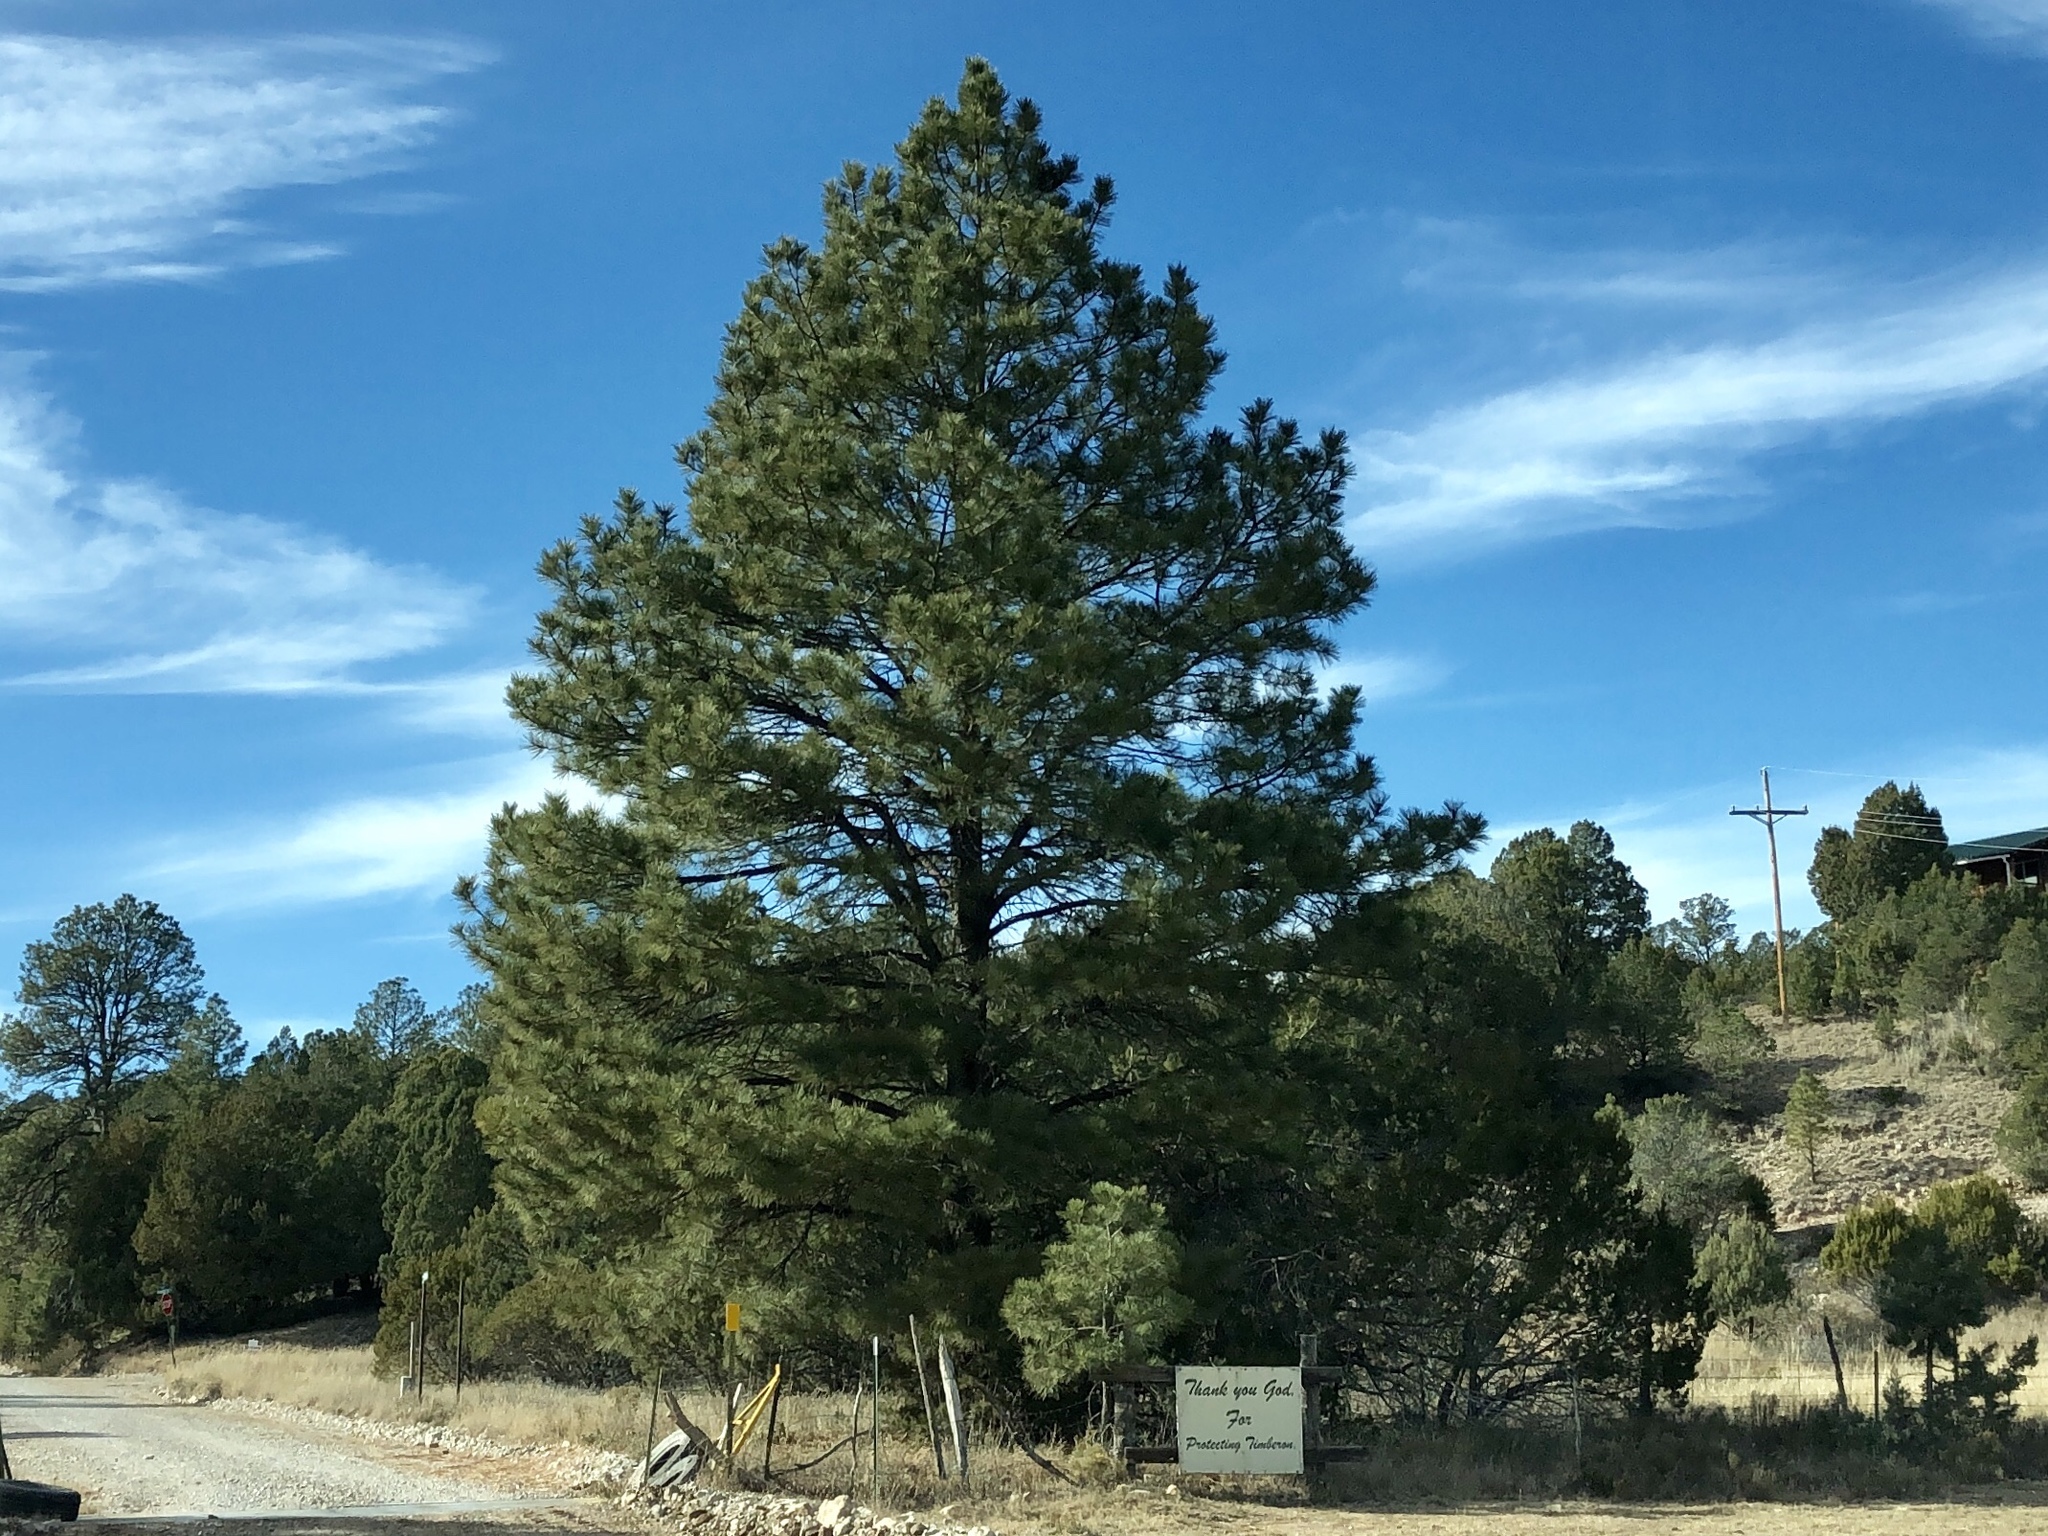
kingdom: Plantae
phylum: Tracheophyta
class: Pinopsida
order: Pinales
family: Pinaceae
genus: Pinus
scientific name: Pinus ponderosa
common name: Western yellow-pine
